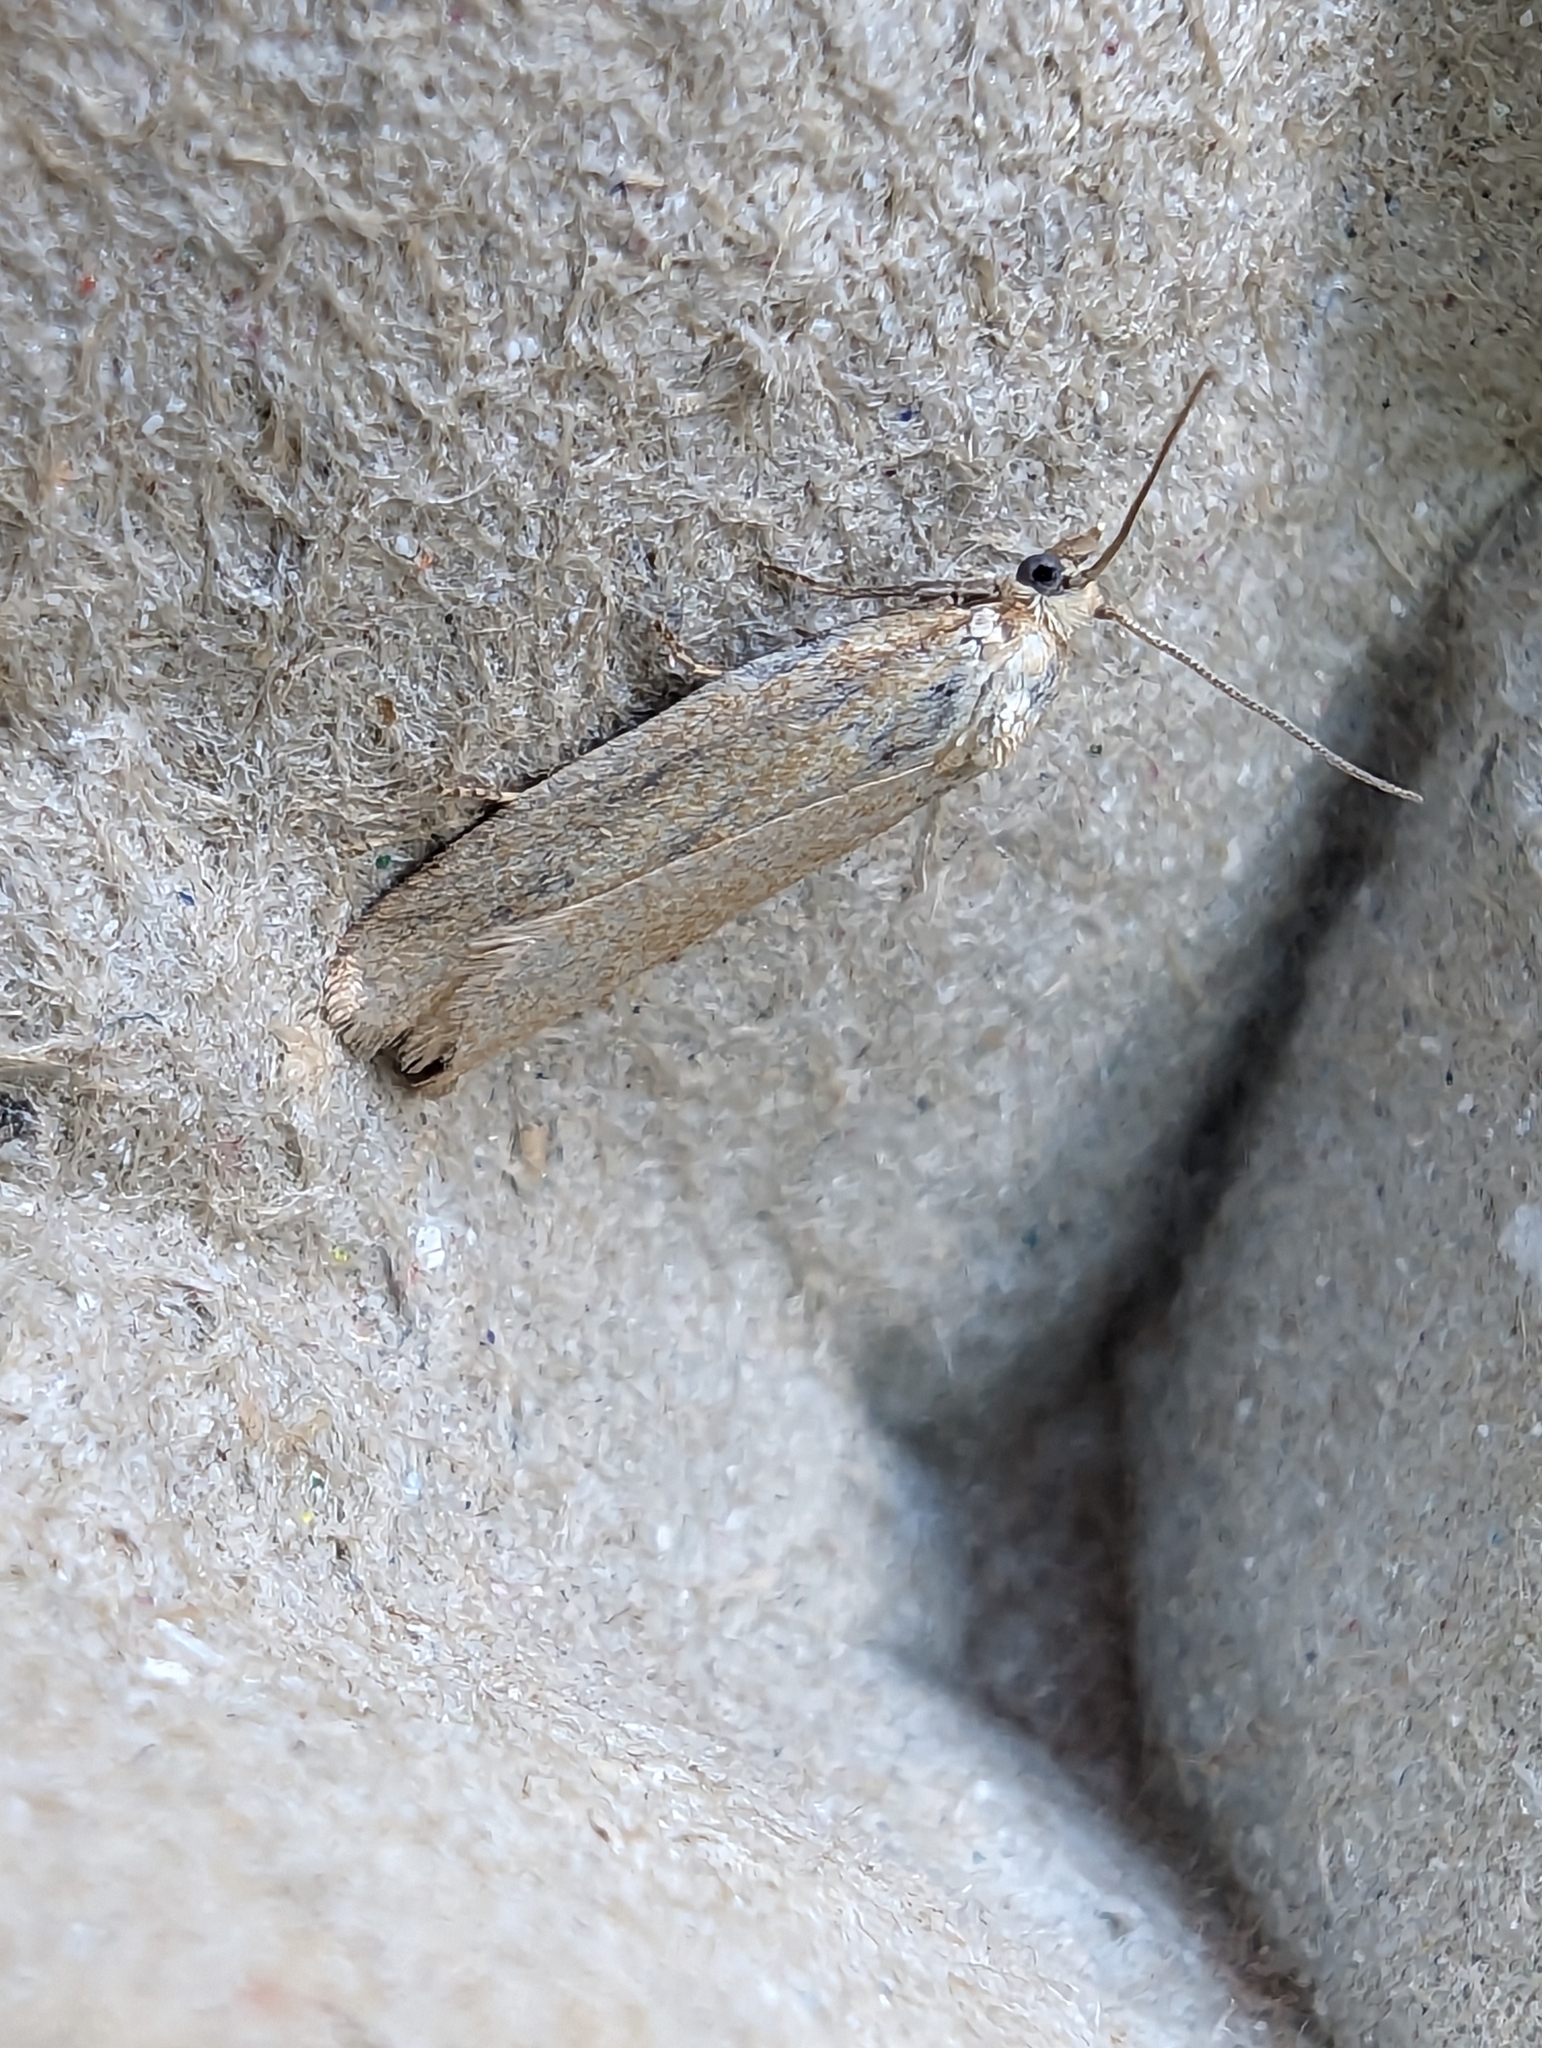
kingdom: Animalia
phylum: Arthropoda
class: Insecta
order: Lepidoptera
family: Tortricidae
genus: Eana
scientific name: Eana osseana
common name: Dotted shade
